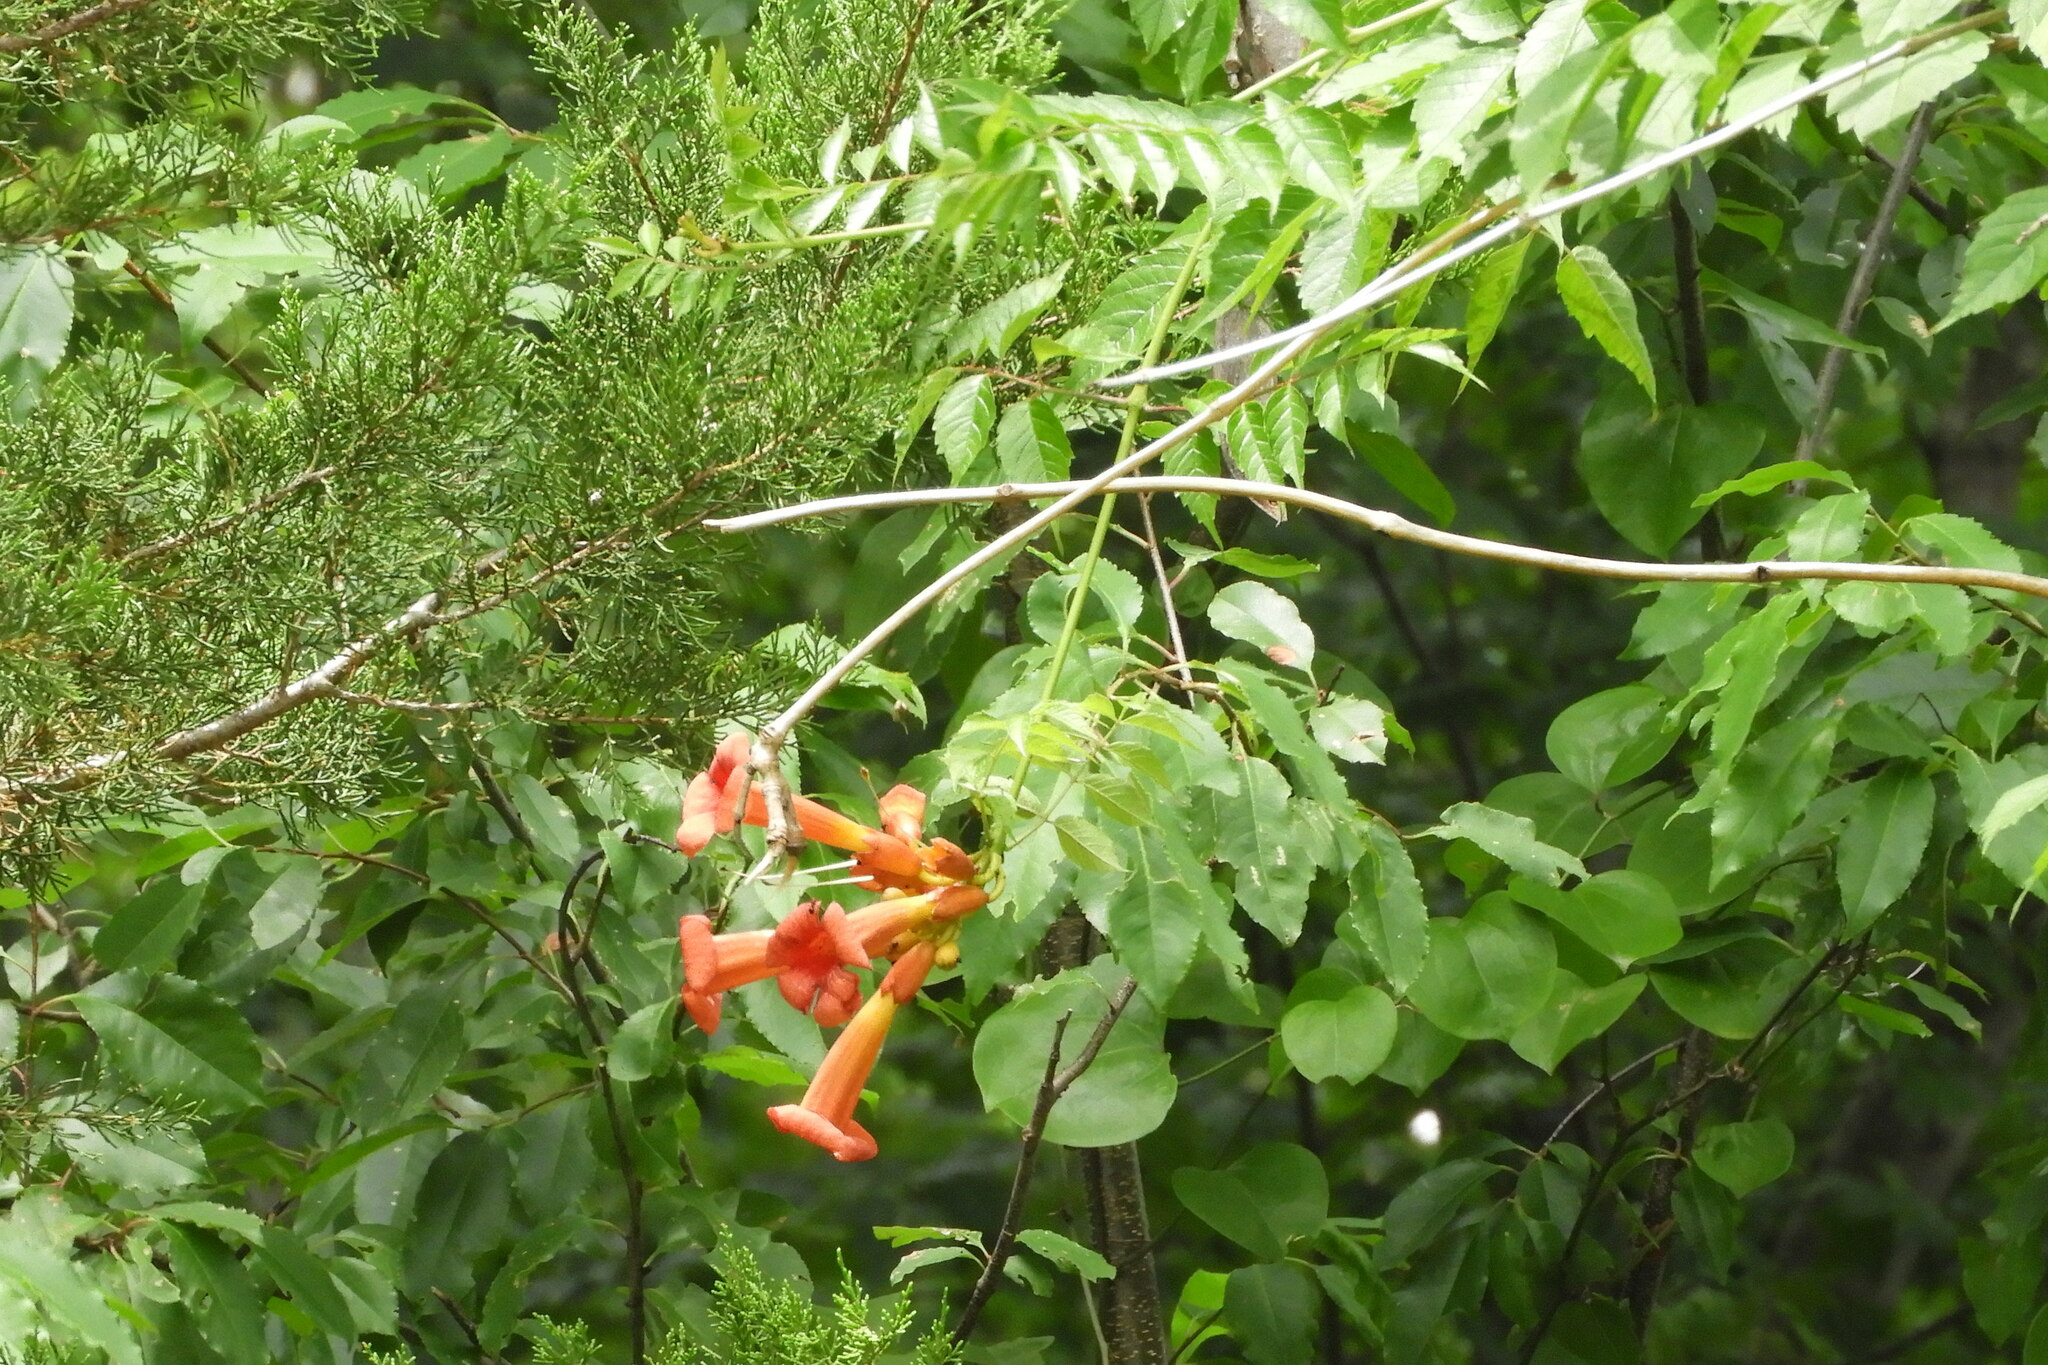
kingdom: Plantae
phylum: Tracheophyta
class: Magnoliopsida
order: Lamiales
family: Bignoniaceae
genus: Campsis
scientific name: Campsis radicans
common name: Trumpet-creeper
